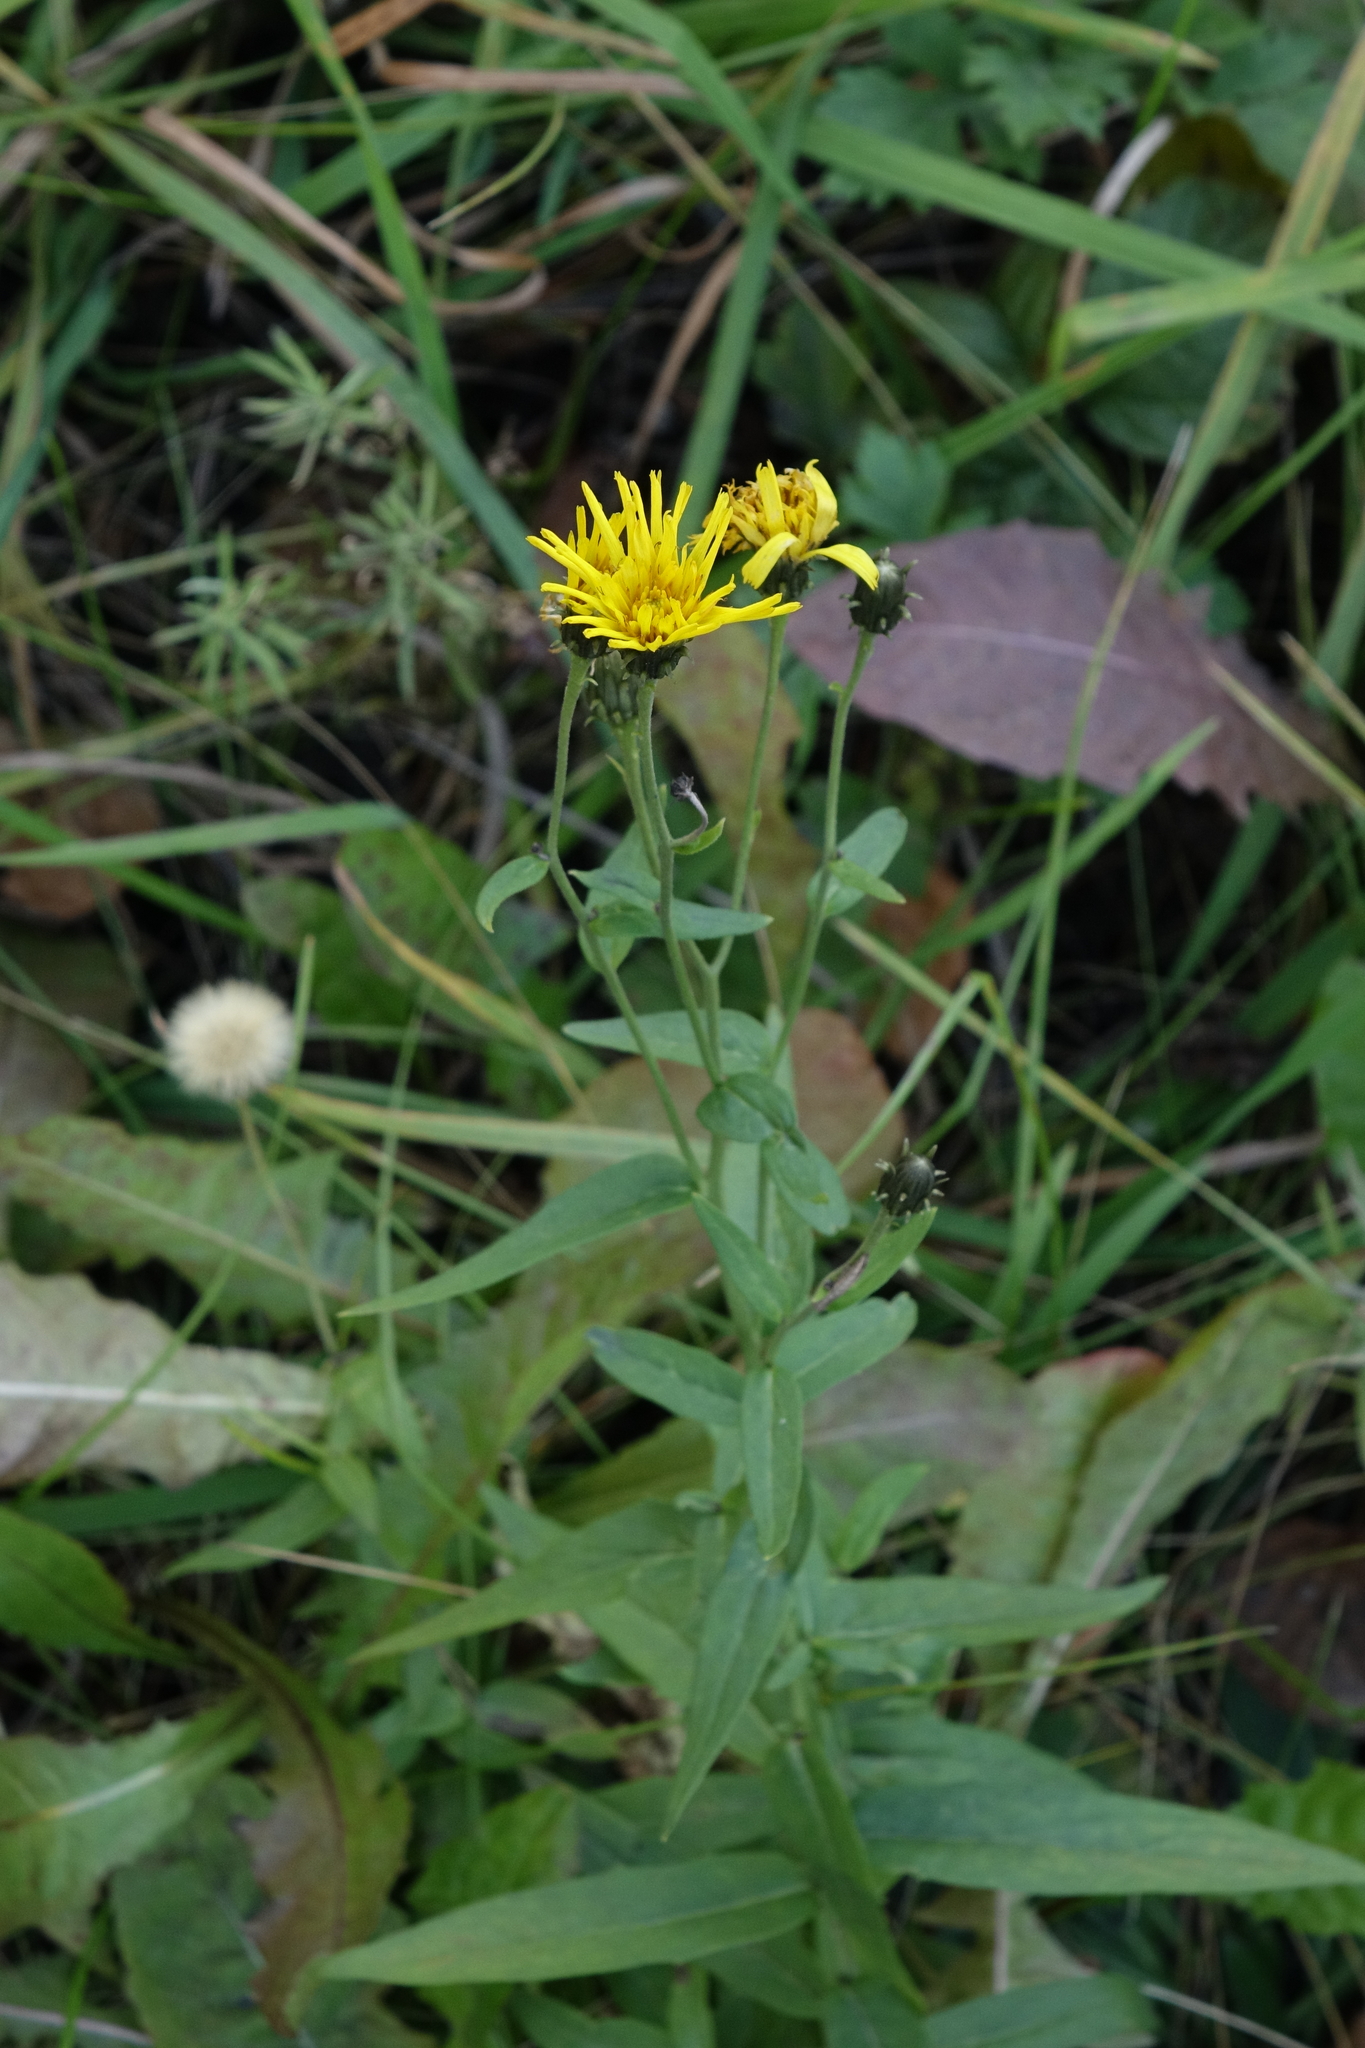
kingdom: Plantae
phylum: Tracheophyta
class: Magnoliopsida
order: Asterales
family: Asteraceae
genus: Hieracium
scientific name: Hieracium umbellatum
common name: Northern hawkweed
